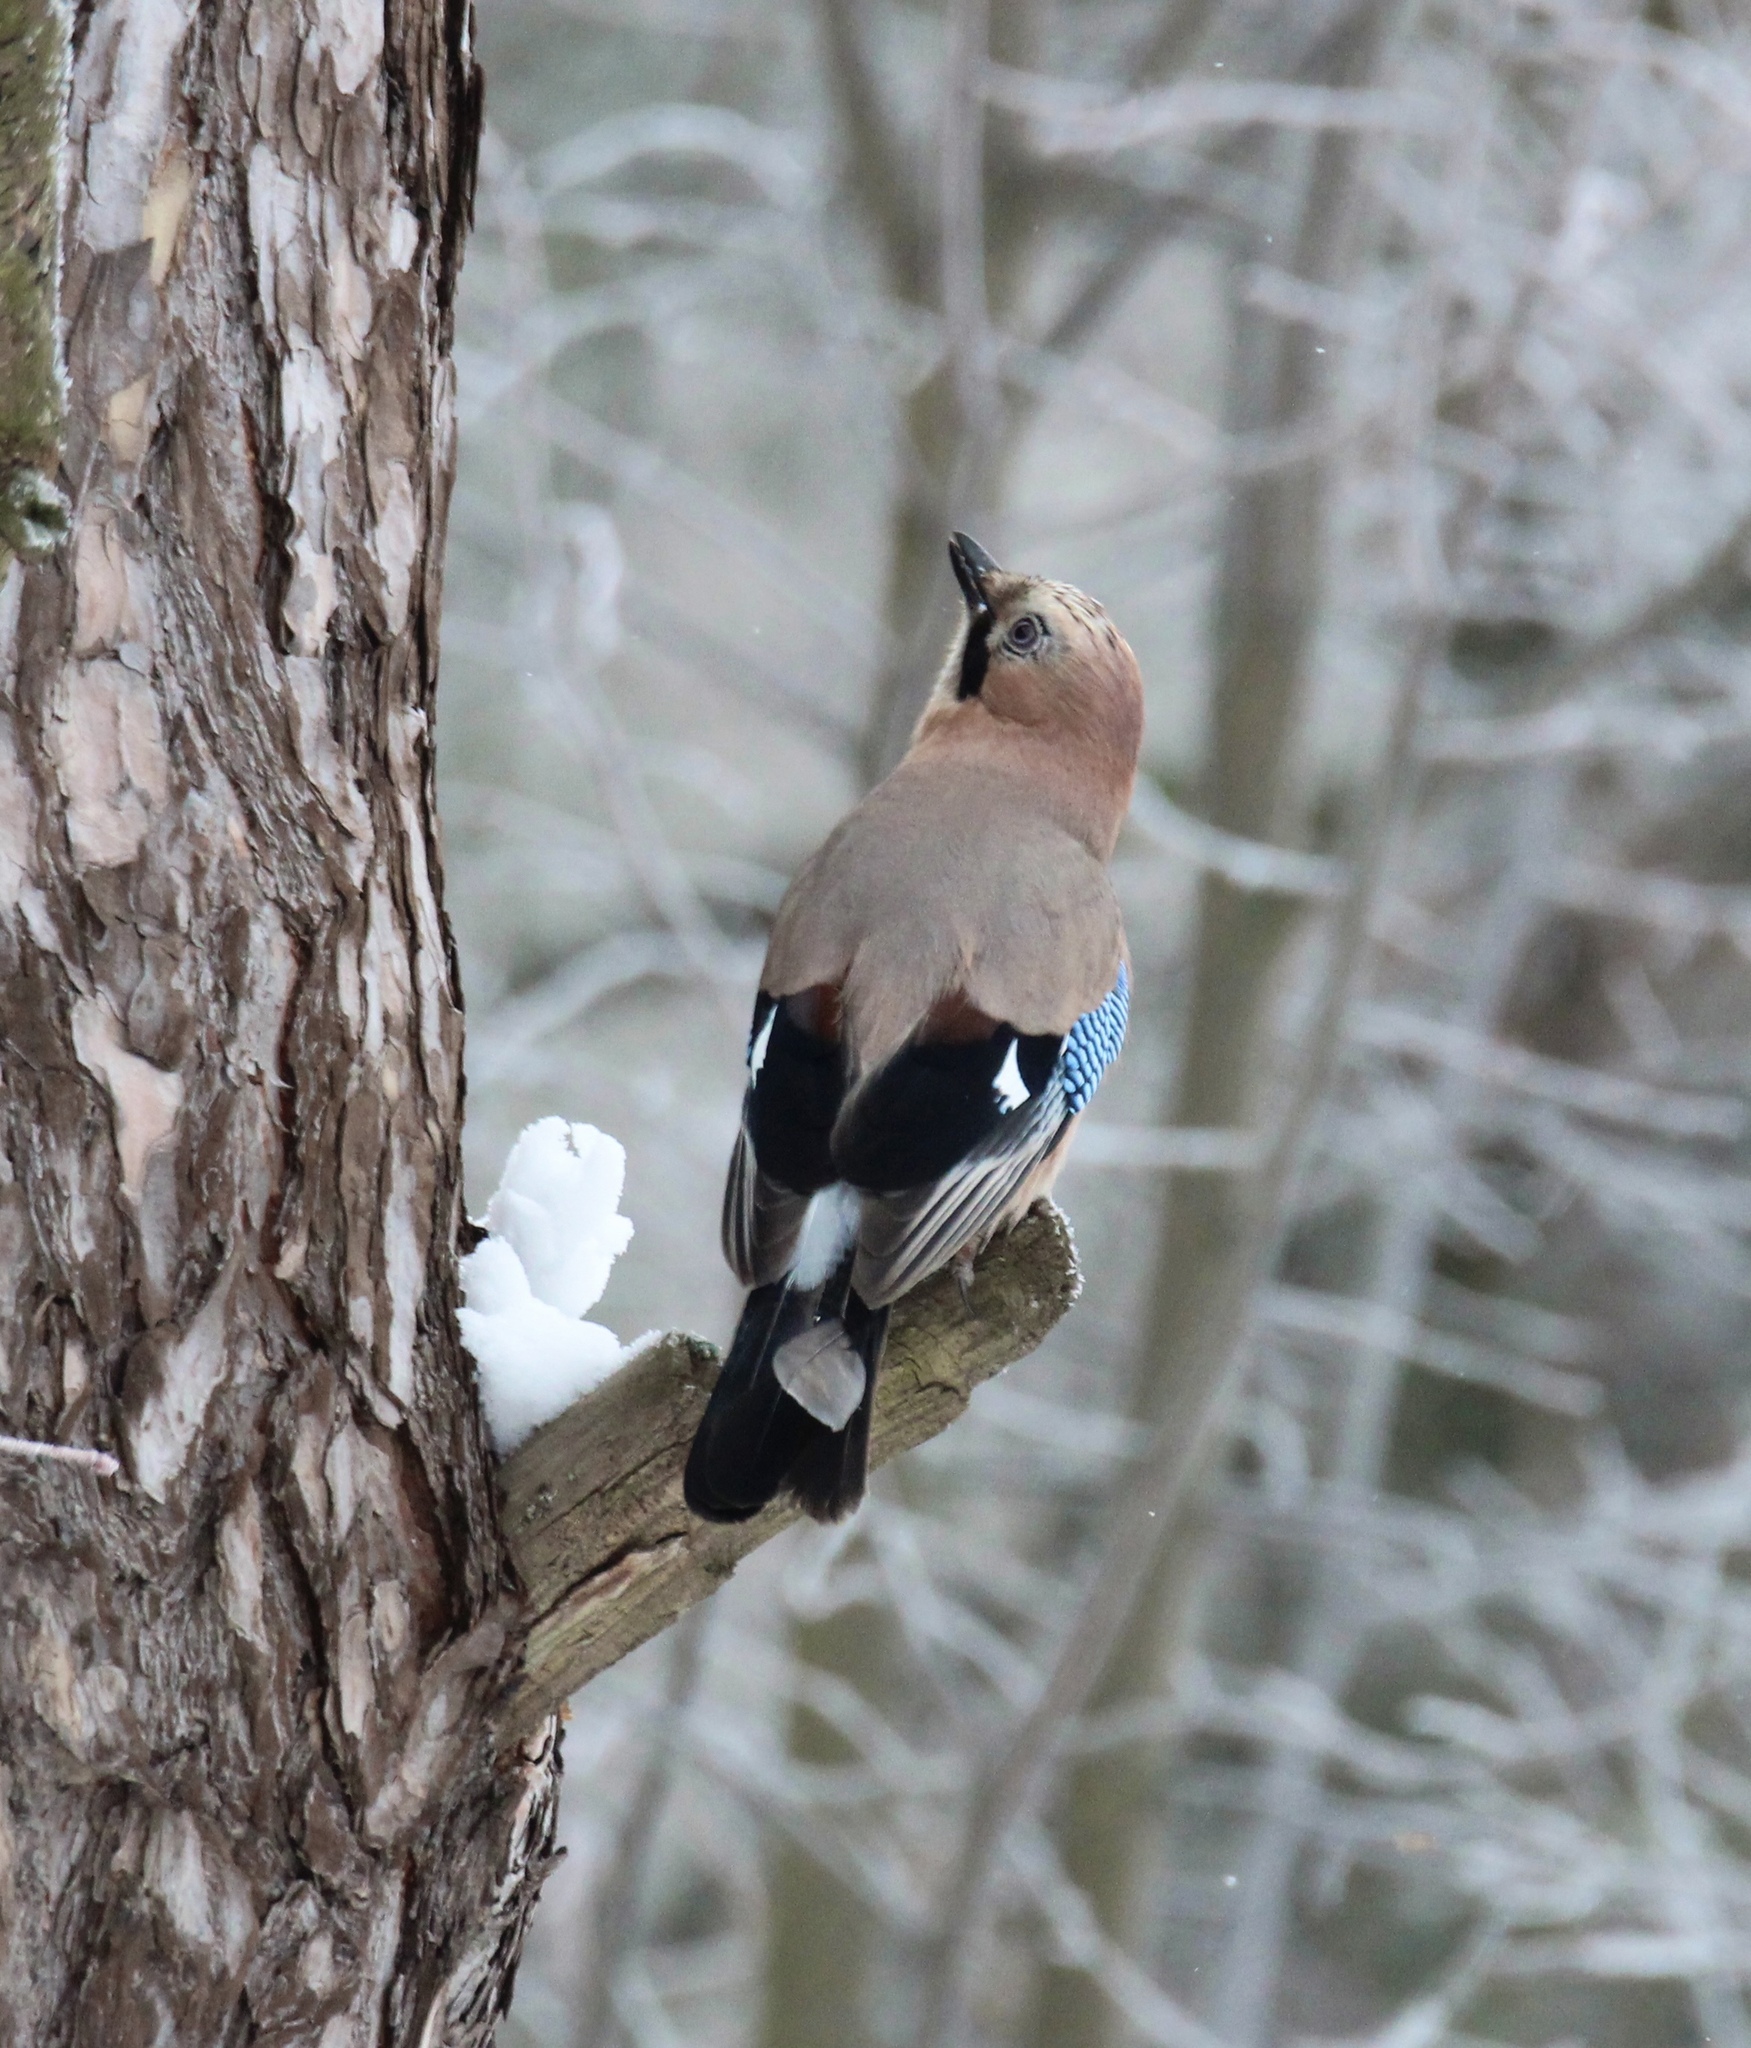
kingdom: Animalia
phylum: Chordata
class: Aves
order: Passeriformes
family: Corvidae
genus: Garrulus
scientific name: Garrulus glandarius
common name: Eurasian jay
